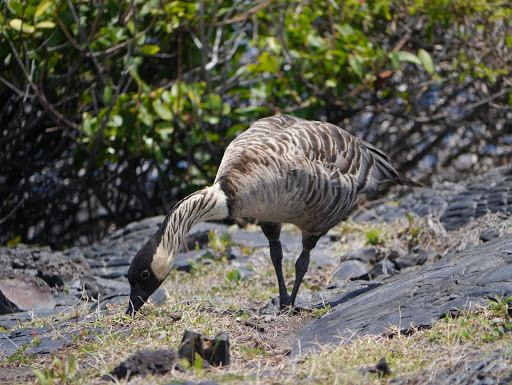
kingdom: Animalia
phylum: Chordata
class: Aves
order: Anseriformes
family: Anatidae
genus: Branta
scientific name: Branta sandvicensis
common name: Nene
